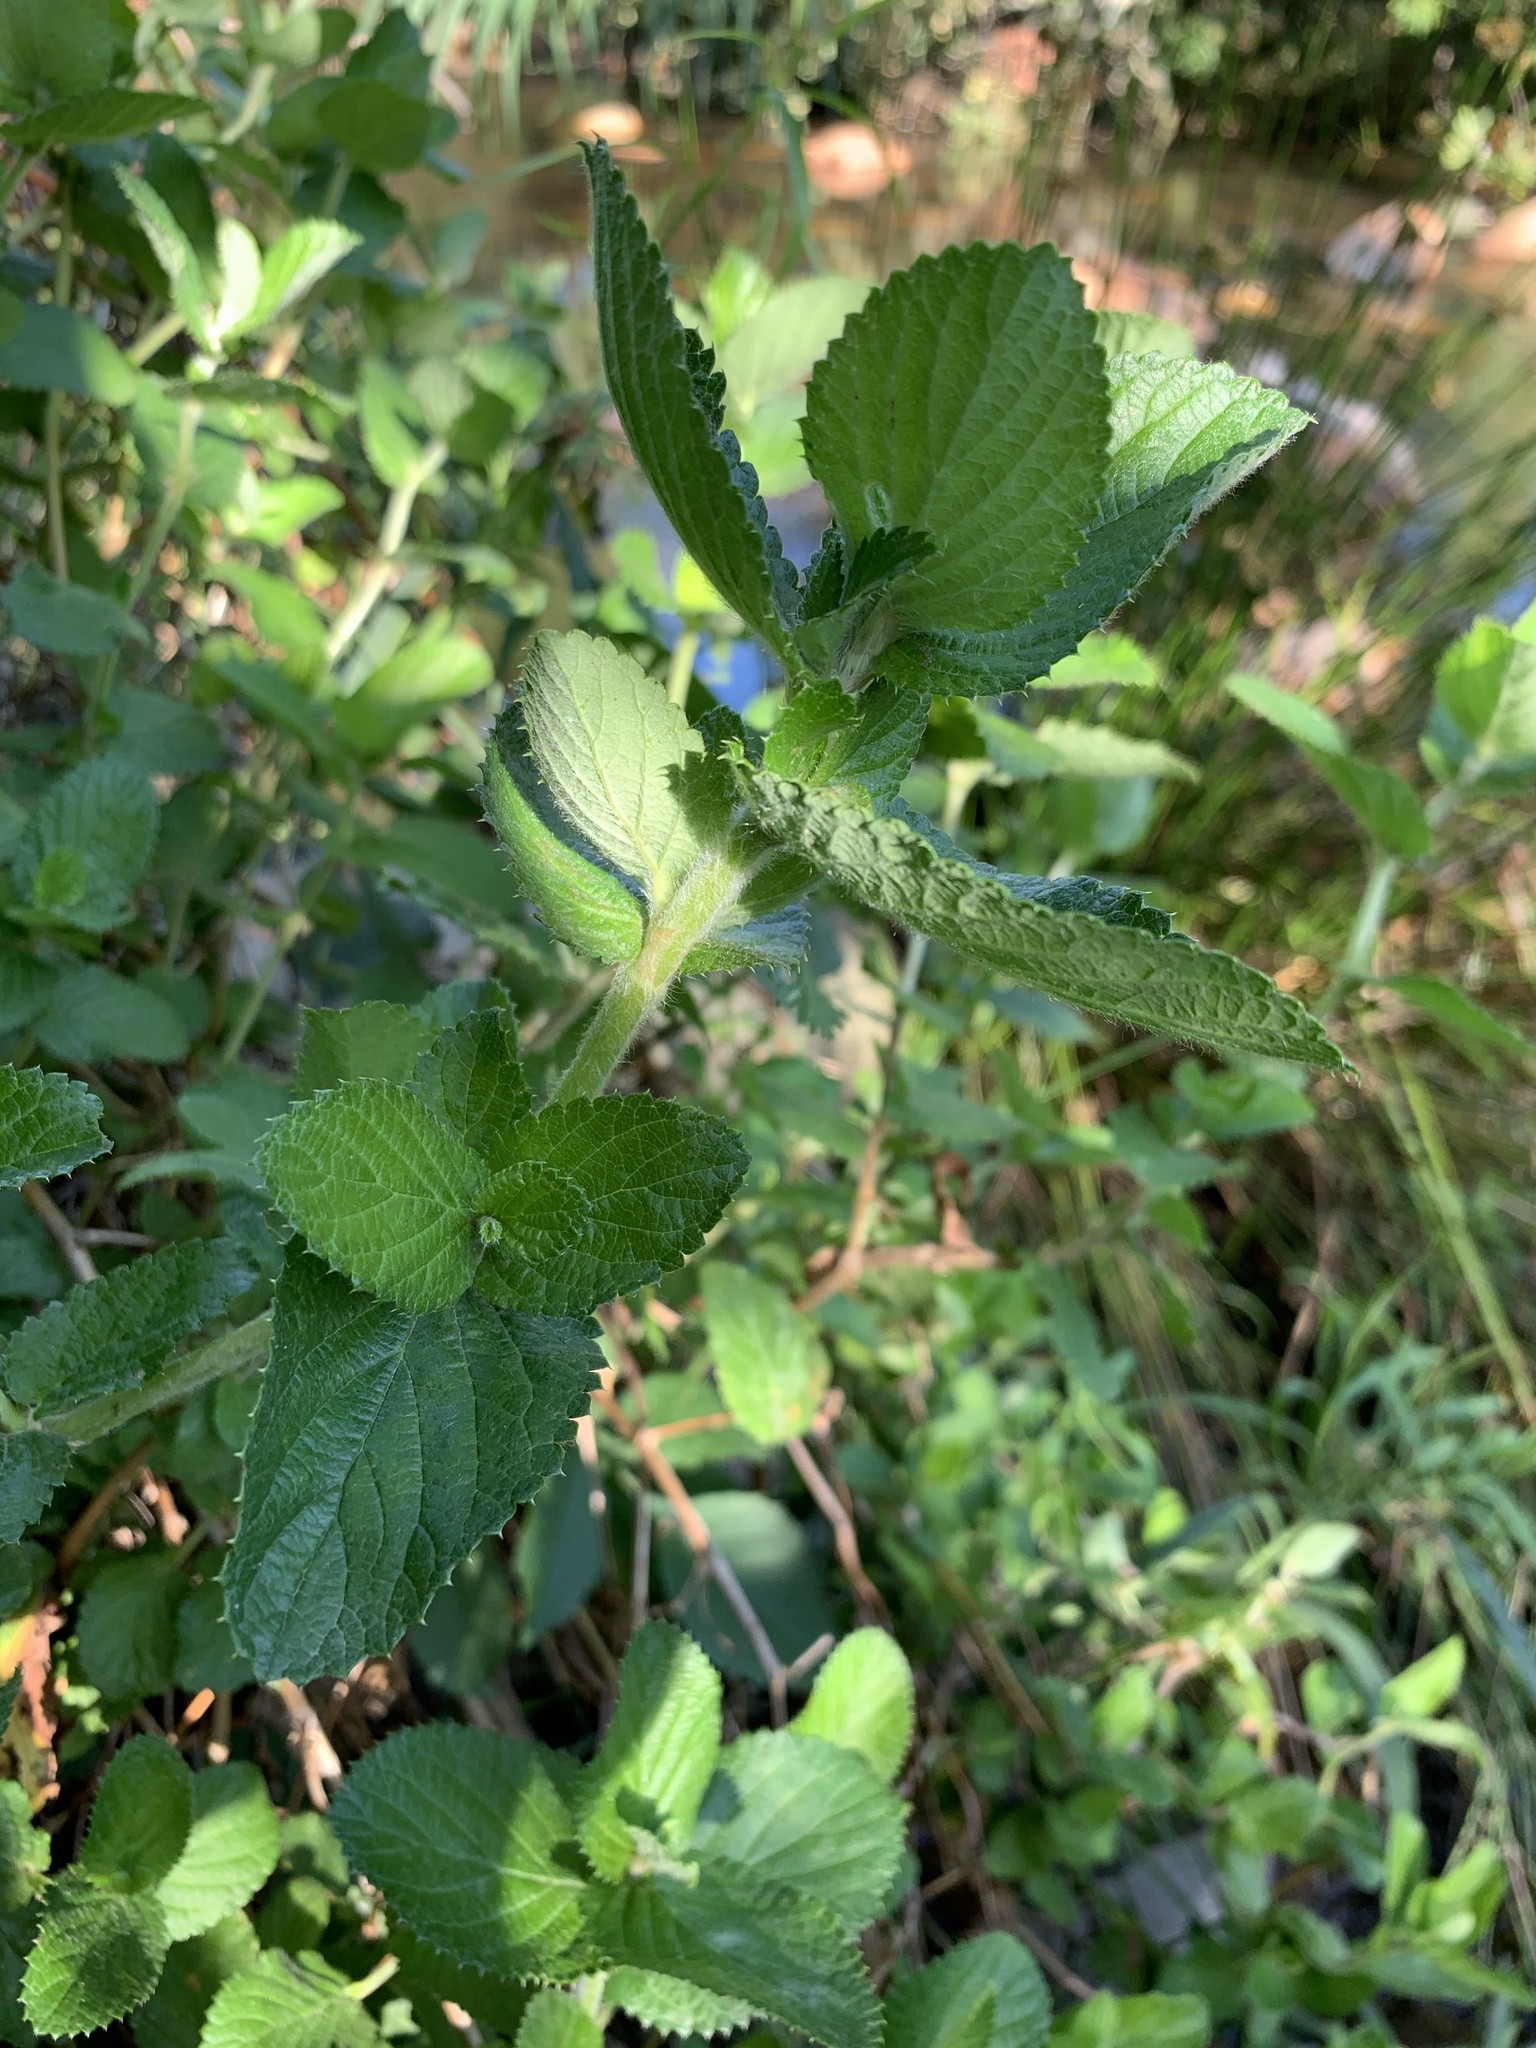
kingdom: Plantae
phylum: Tracheophyta
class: Magnoliopsida
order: Rosales
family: Rosaceae
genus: Cliffortia
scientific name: Cliffortia odorata
